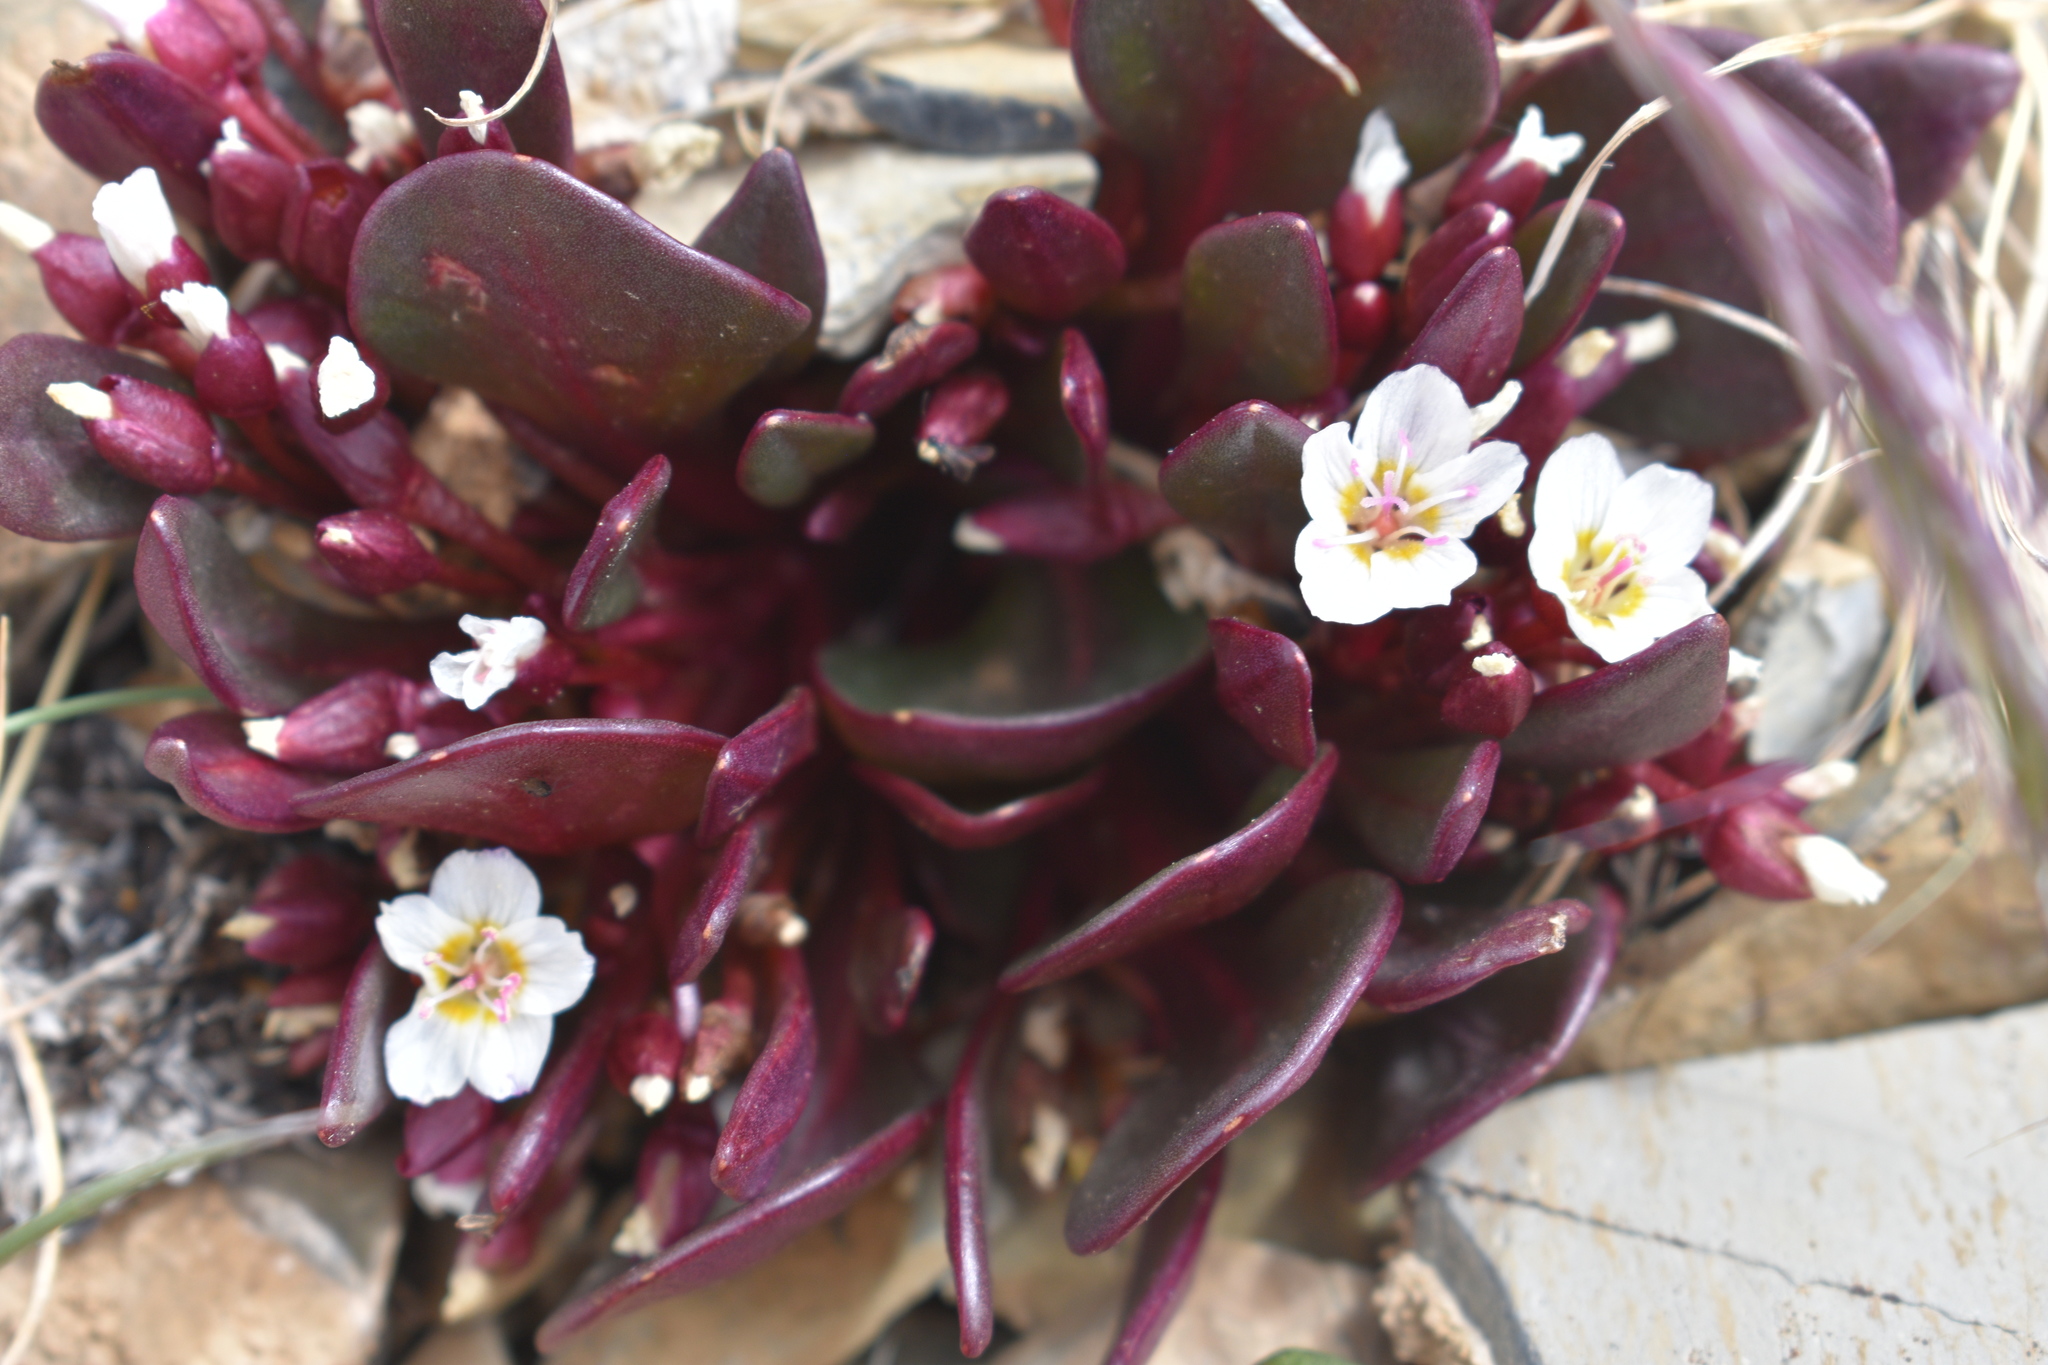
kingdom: Plantae
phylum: Tracheophyta
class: Magnoliopsida
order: Caryophyllales
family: Montiaceae
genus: Claytonia
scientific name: Claytonia megarhiza
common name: Alpine spring beauty
